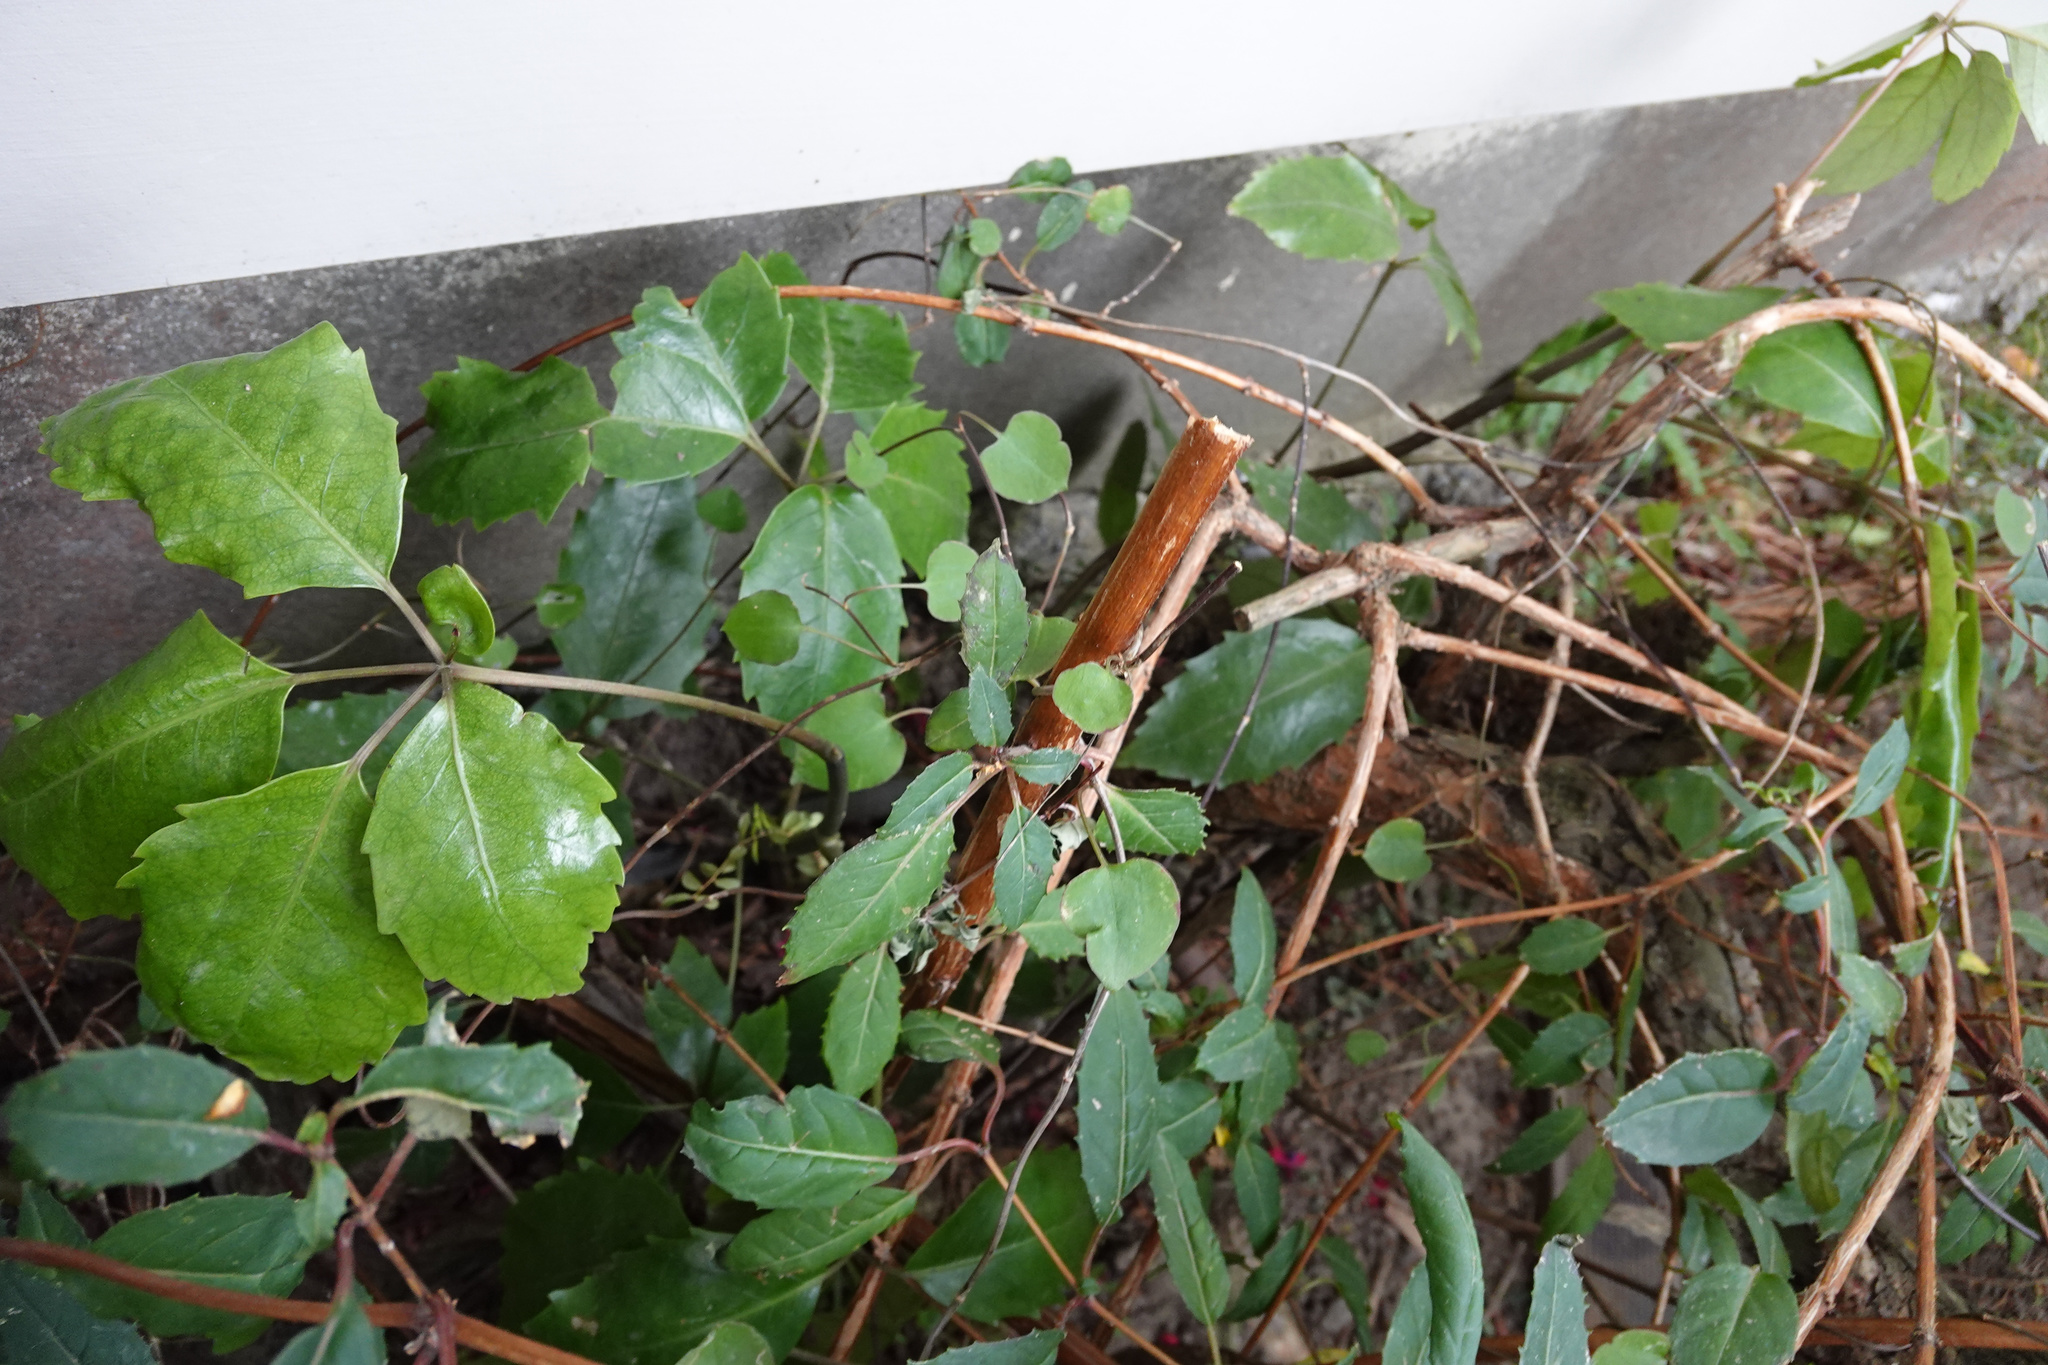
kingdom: Plantae
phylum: Tracheophyta
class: Magnoliopsida
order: Apiales
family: Araliaceae
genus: Neopanax
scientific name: Neopanax arboreus
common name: Five-fingers
